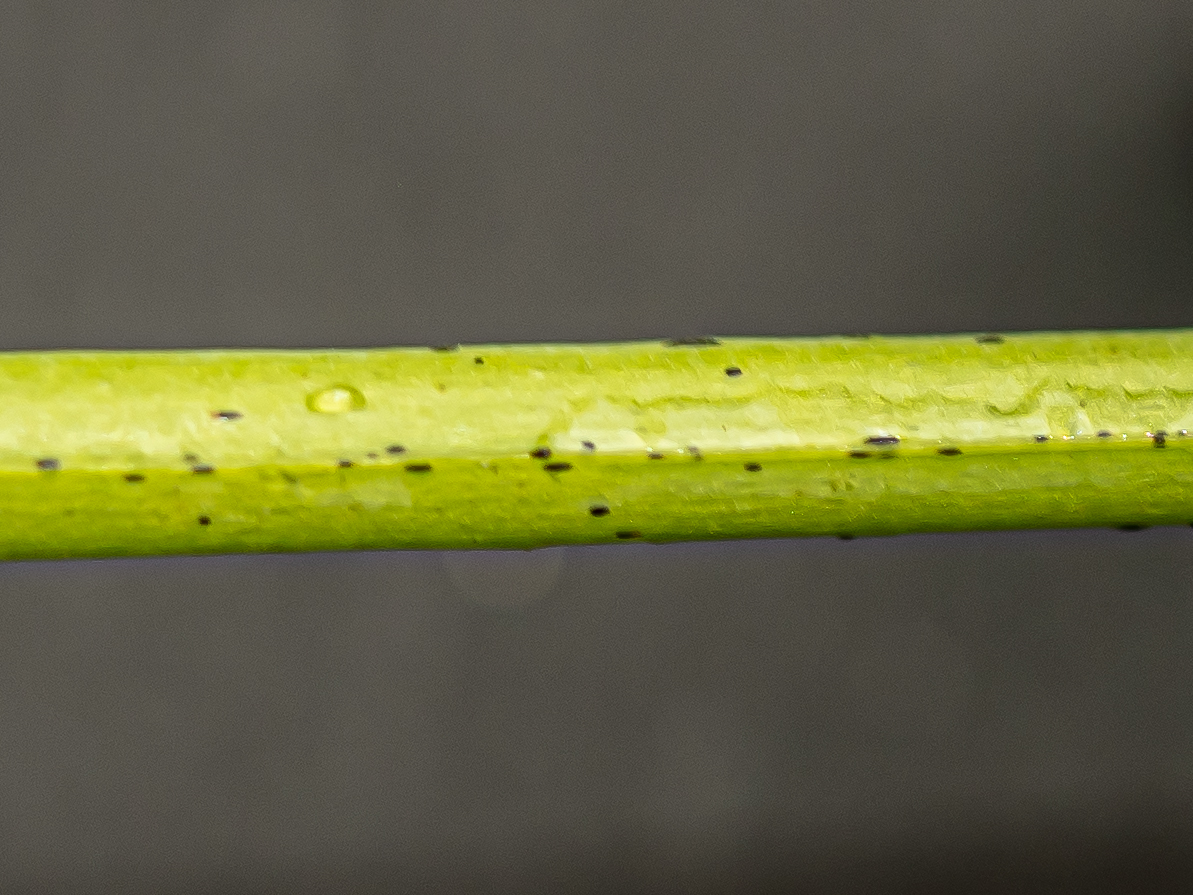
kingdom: Plantae
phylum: Tracheophyta
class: Magnoliopsida
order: Malpighiales
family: Hypericaceae
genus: Hypericum
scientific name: Hypericum perforatum
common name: Common st. johnswort
